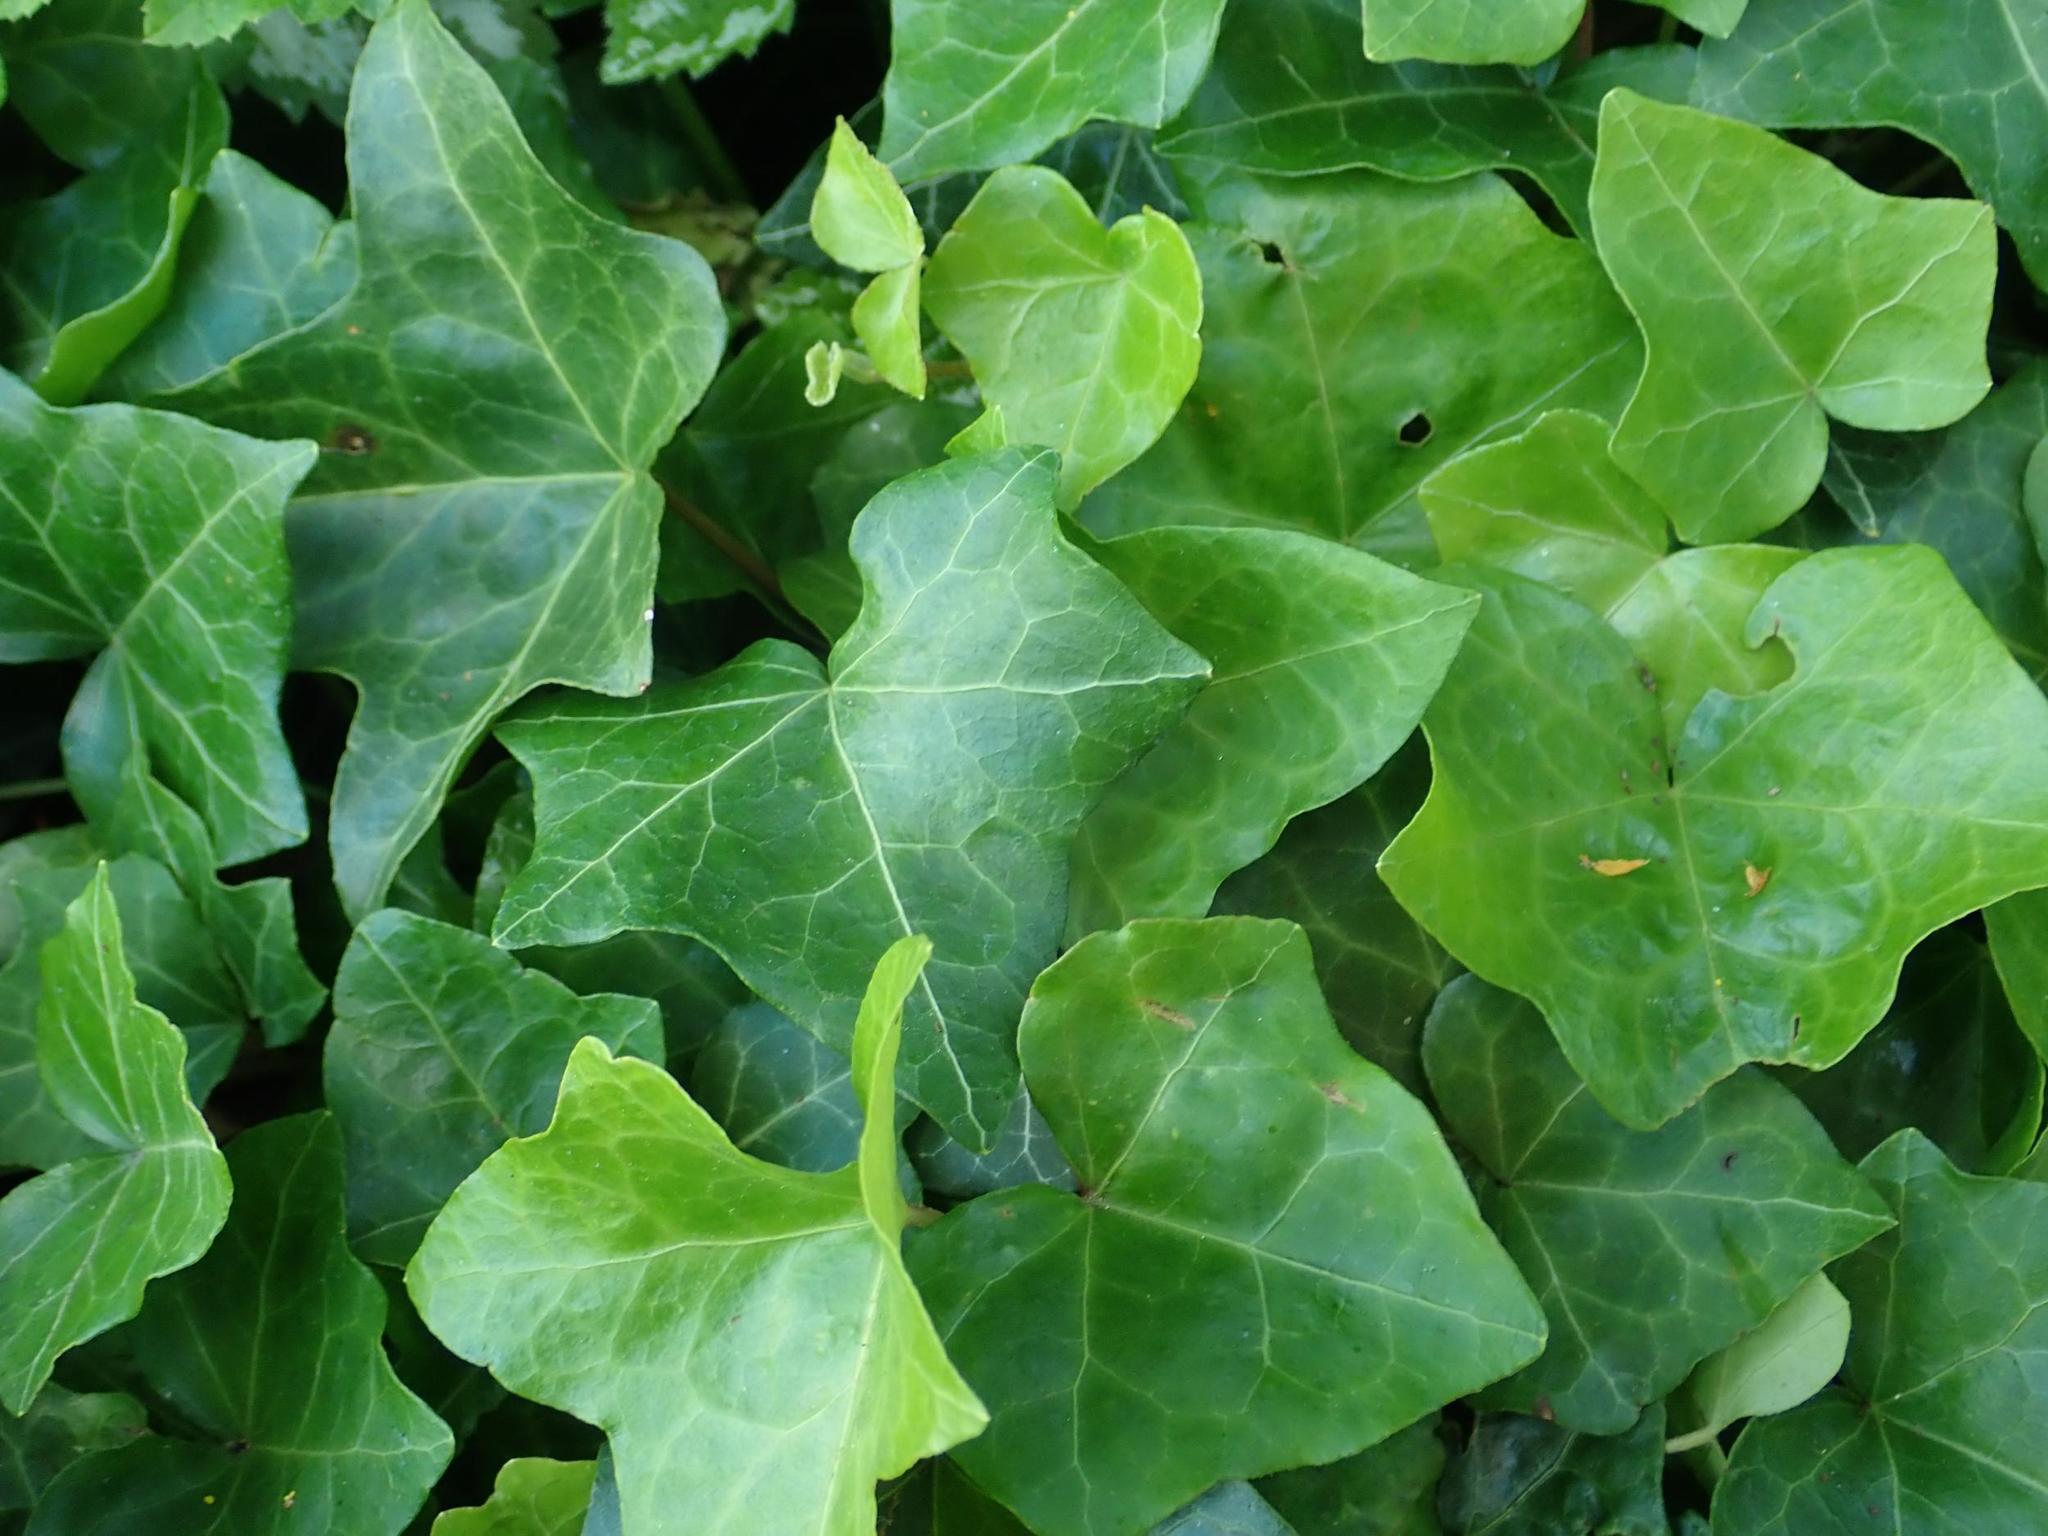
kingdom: Plantae
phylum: Tracheophyta
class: Magnoliopsida
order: Apiales
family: Araliaceae
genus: Hedera
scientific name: Hedera helix
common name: Ivy
